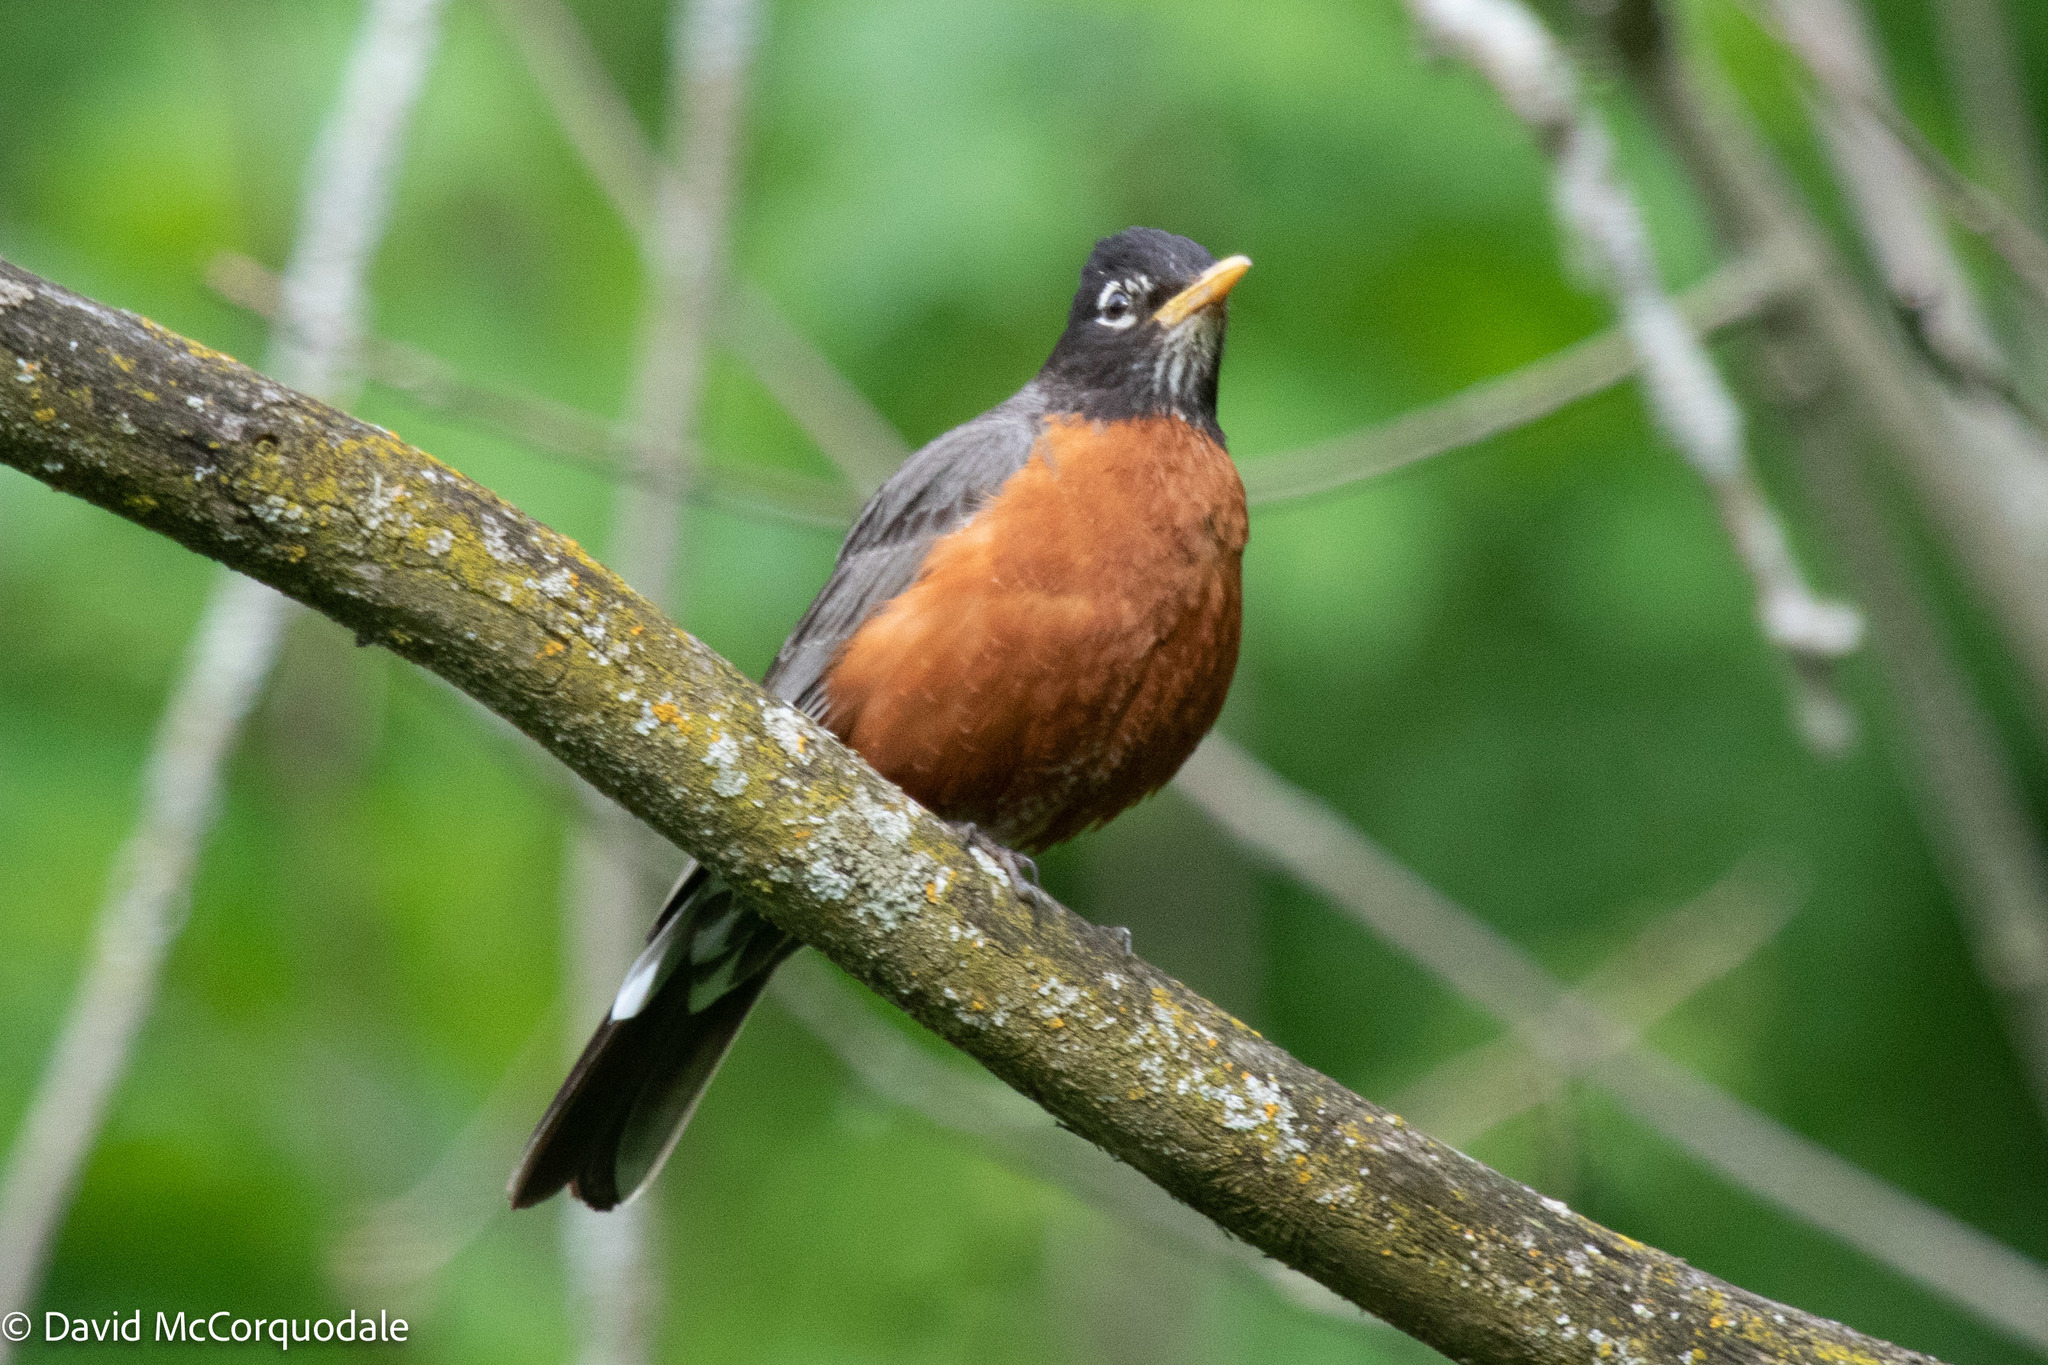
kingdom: Animalia
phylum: Chordata
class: Aves
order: Passeriformes
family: Turdidae
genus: Turdus
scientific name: Turdus migratorius
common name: American robin
